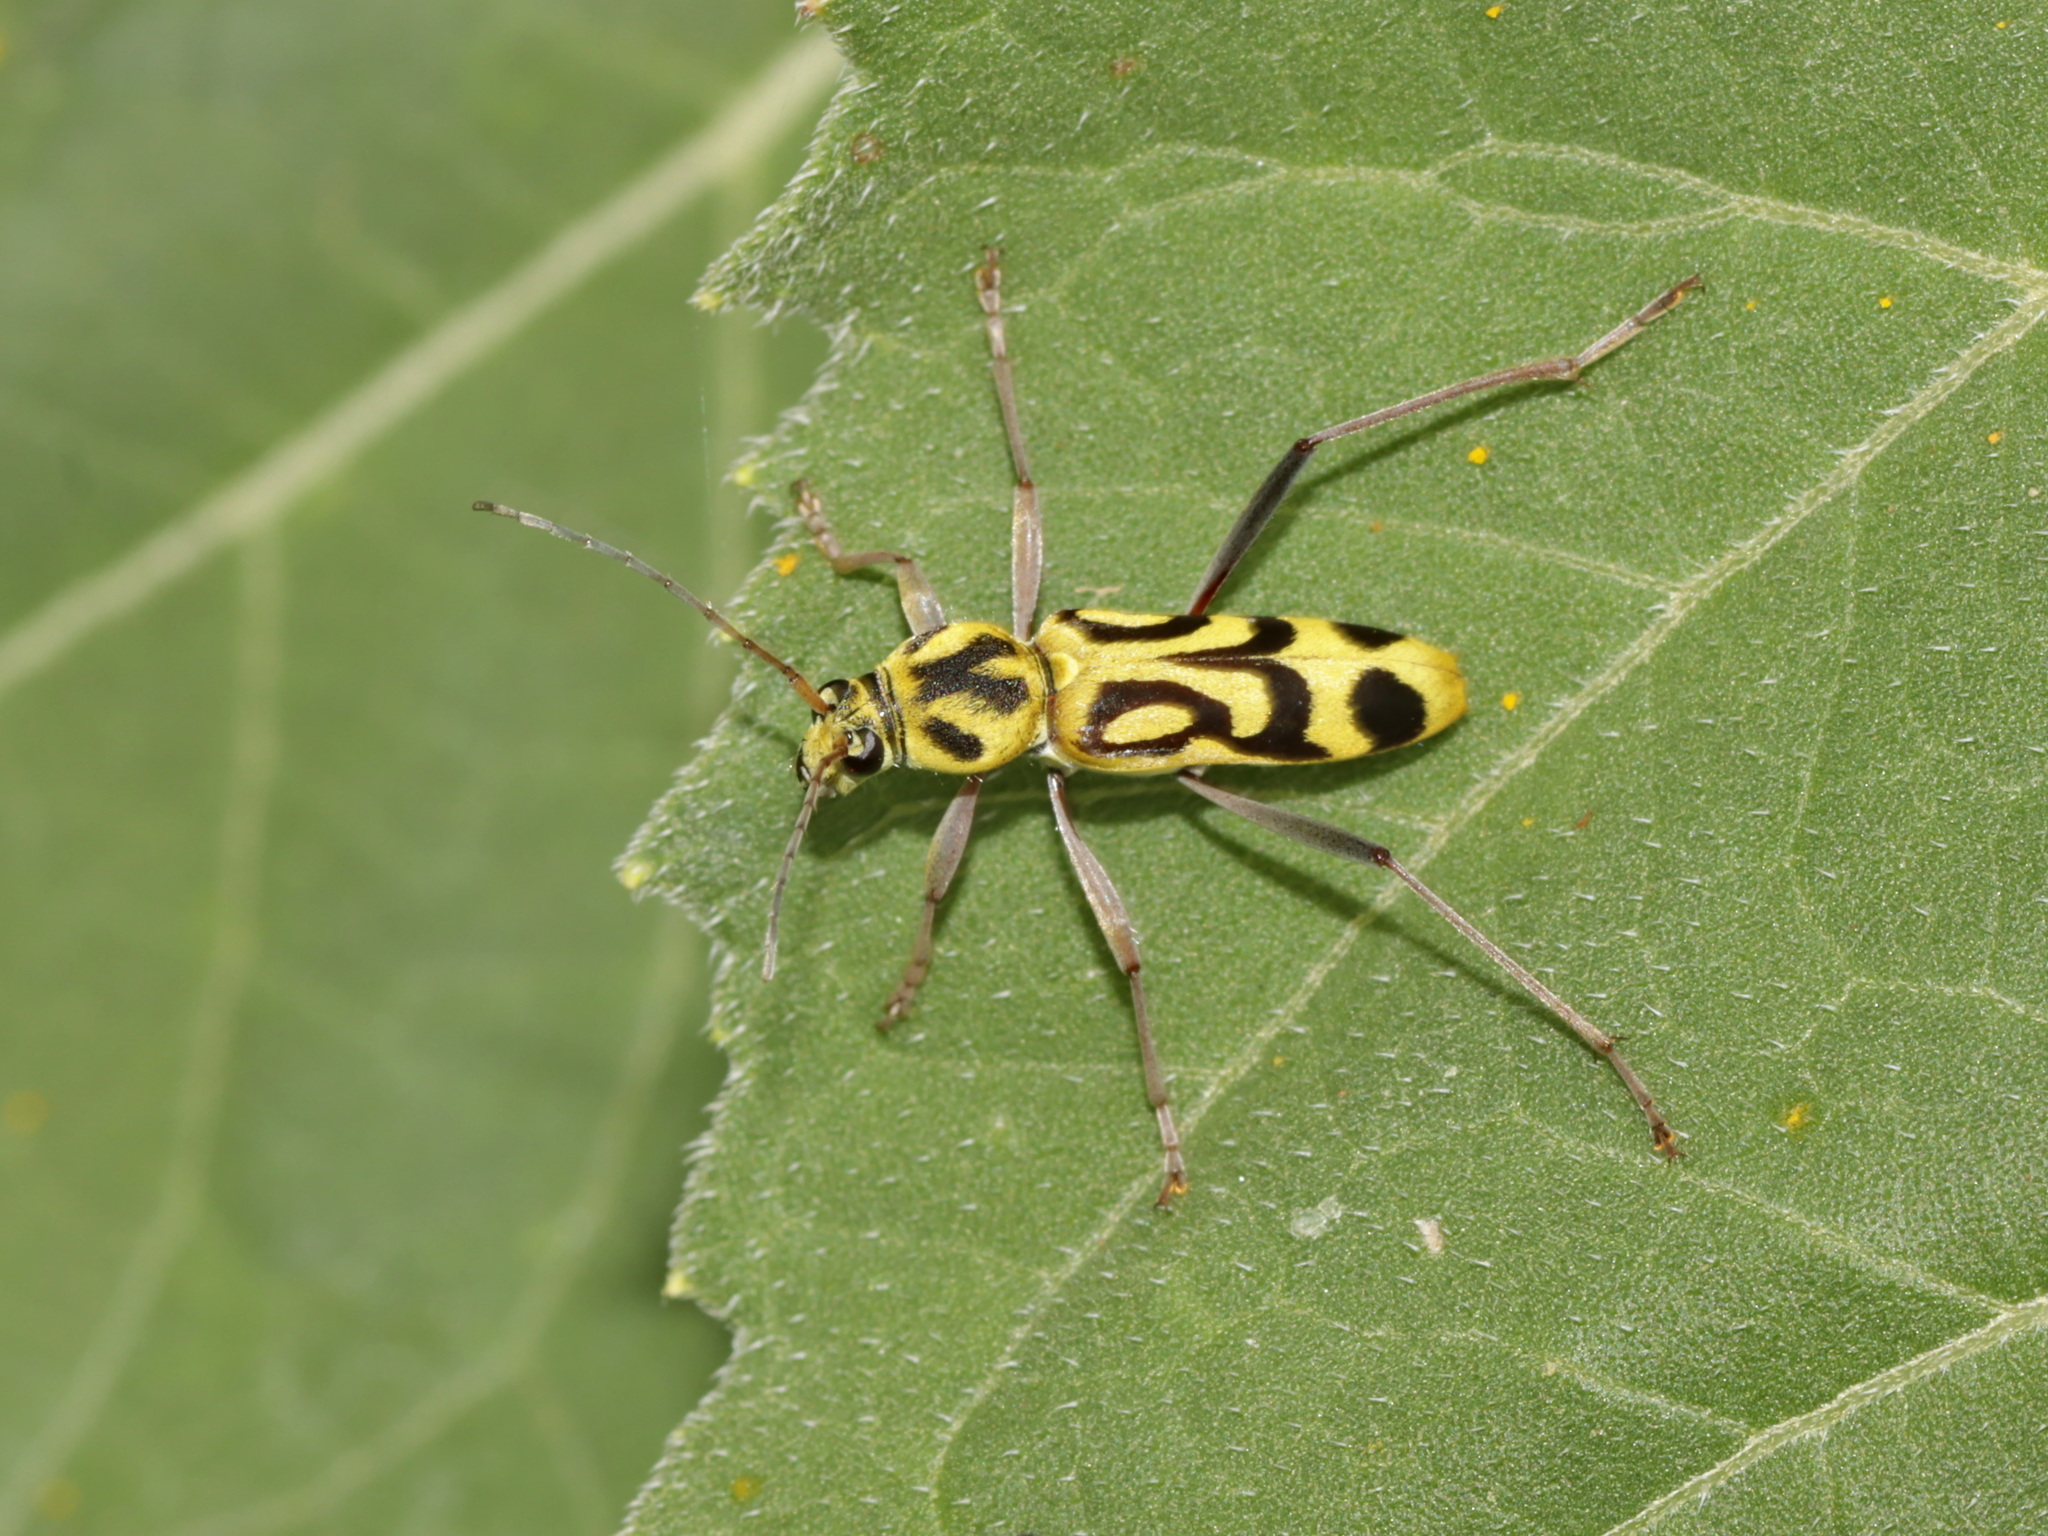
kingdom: Animalia
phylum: Arthropoda
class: Insecta
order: Coleoptera
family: Cerambycidae
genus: Chlorophorus
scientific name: Chlorophorus annularis
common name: Bamboo longhorn beetle
